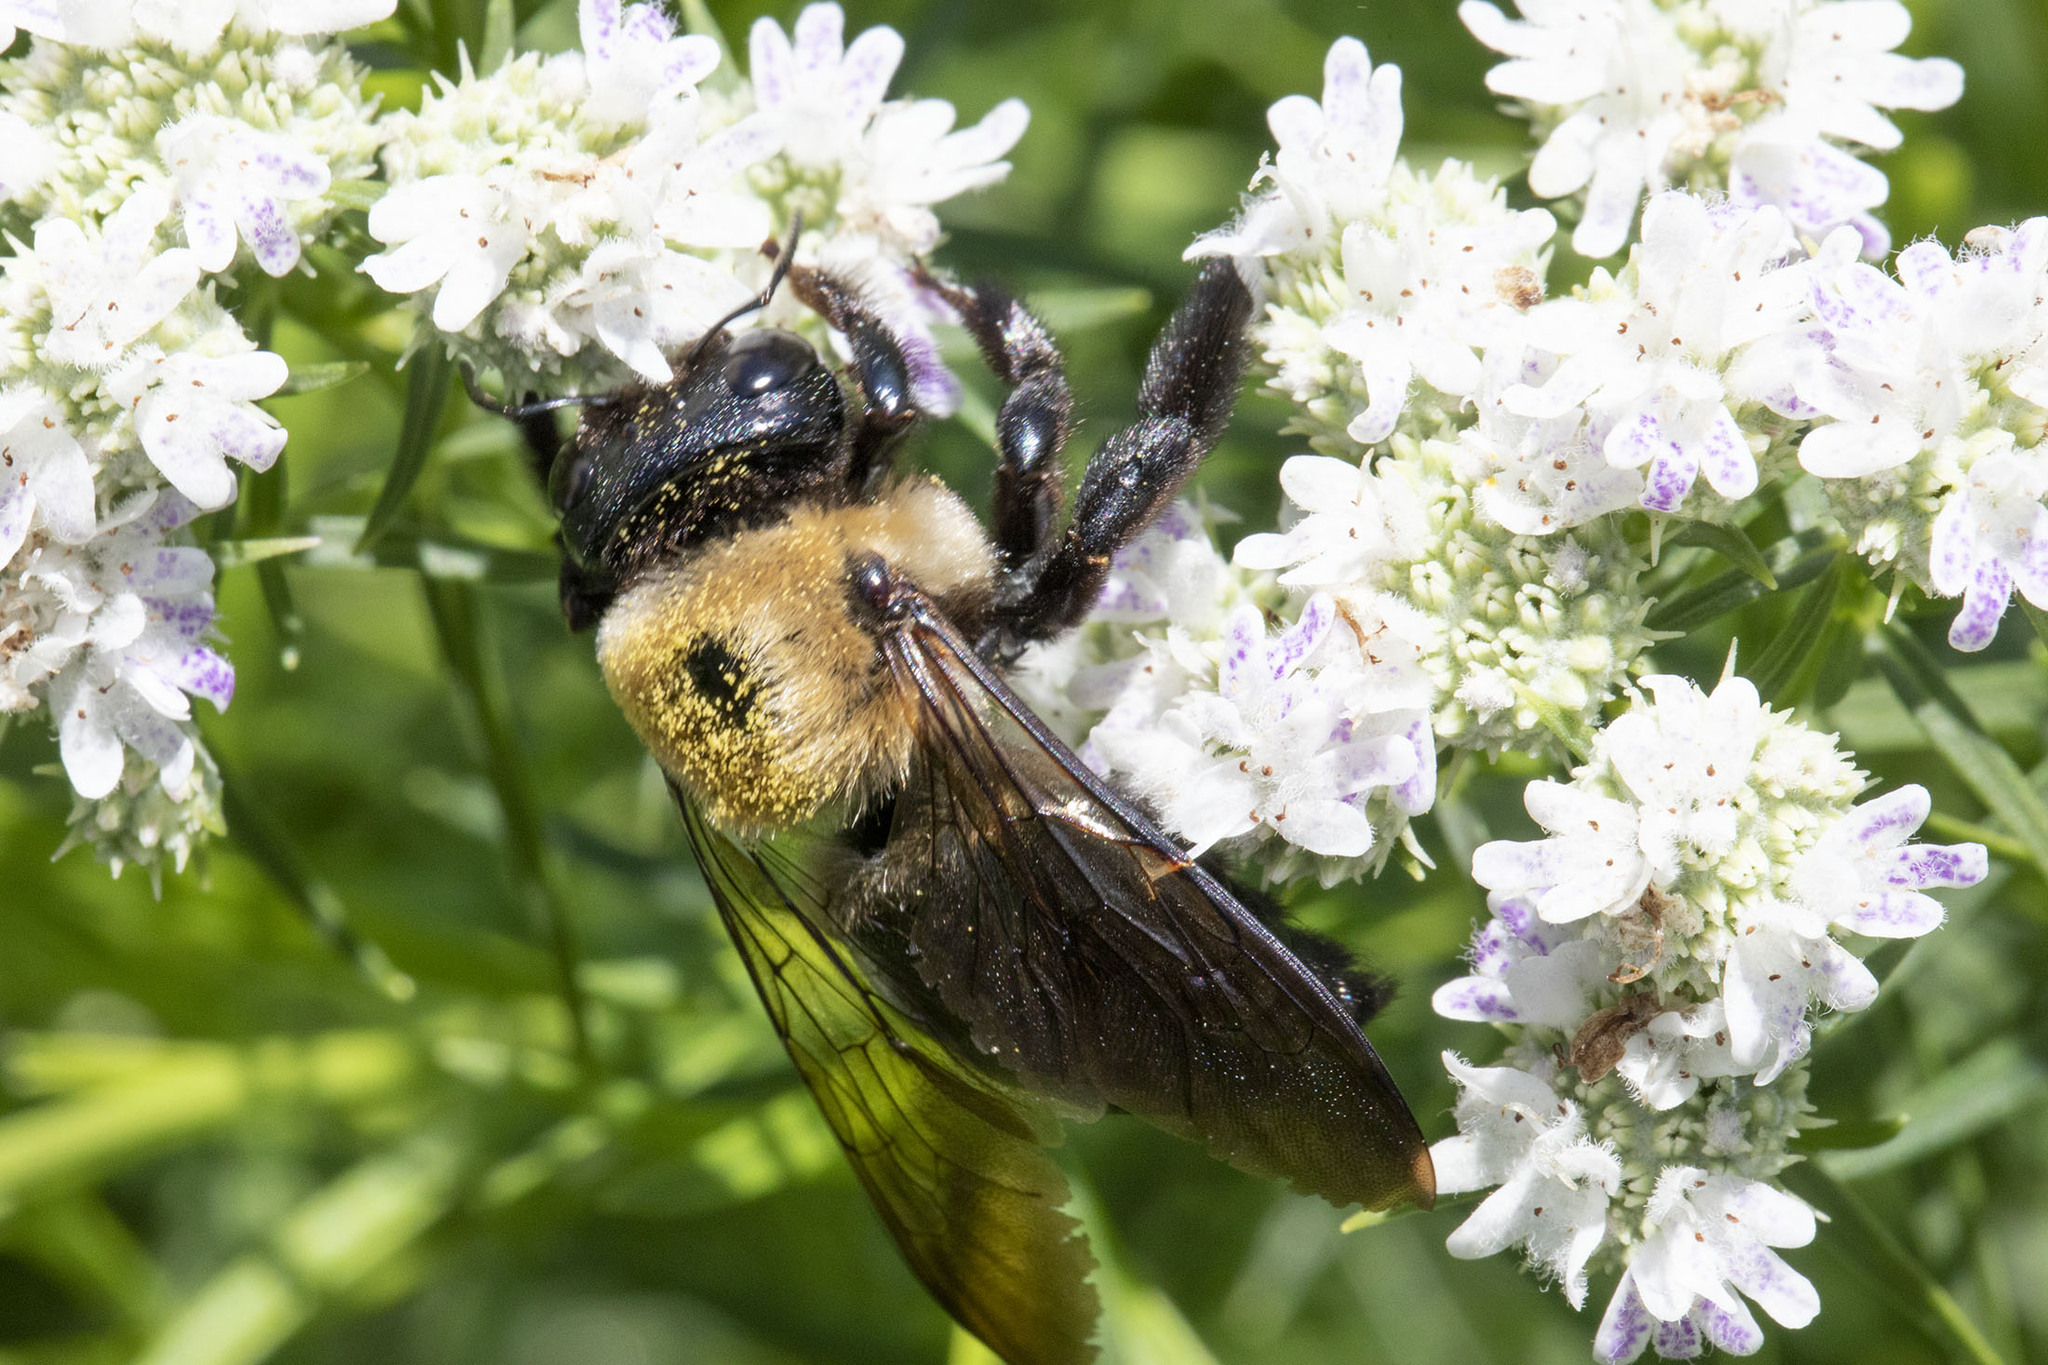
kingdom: Animalia
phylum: Arthropoda
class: Insecta
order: Hymenoptera
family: Apidae
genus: Xylocopa
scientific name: Xylocopa virginica
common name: Carpenter bee
